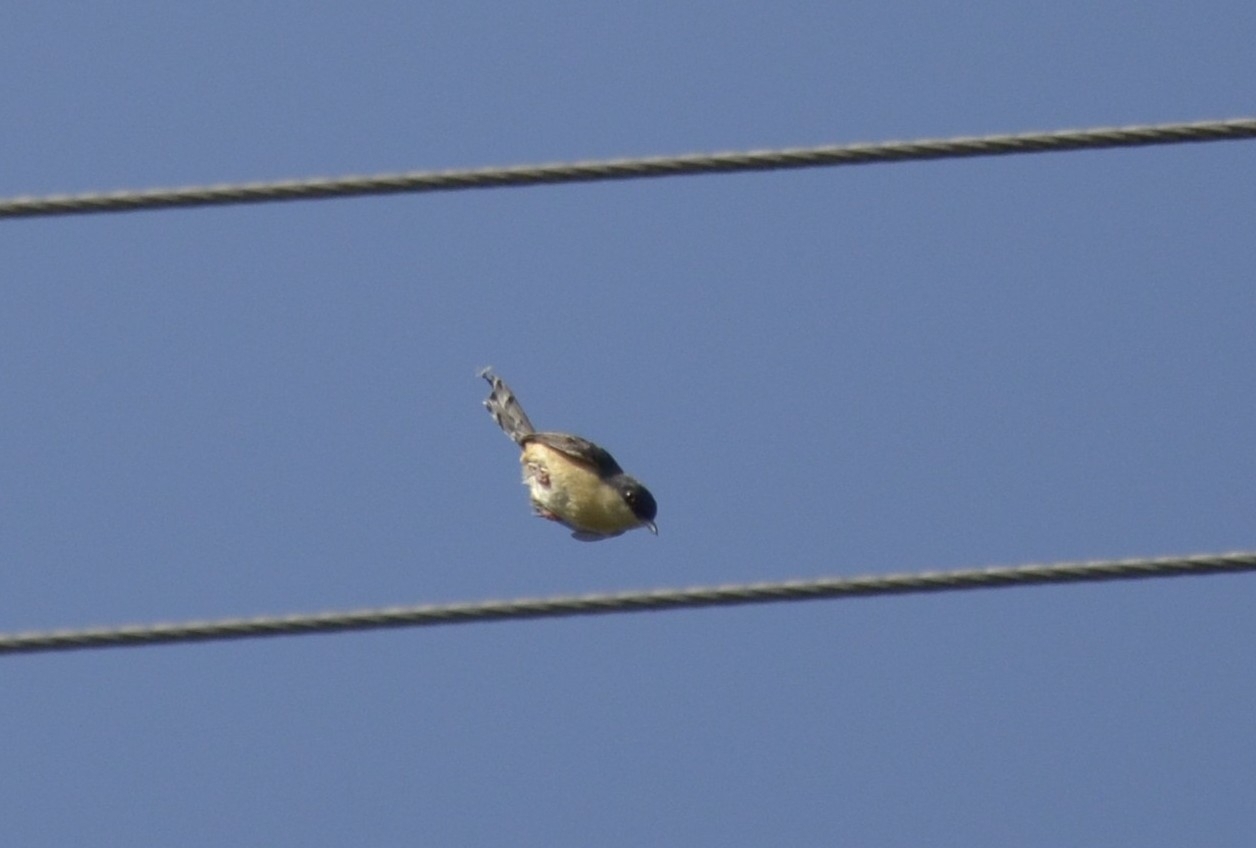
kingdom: Animalia
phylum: Chordata
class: Aves
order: Passeriformes
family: Cisticolidae
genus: Prinia
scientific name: Prinia socialis
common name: Ashy prinia
